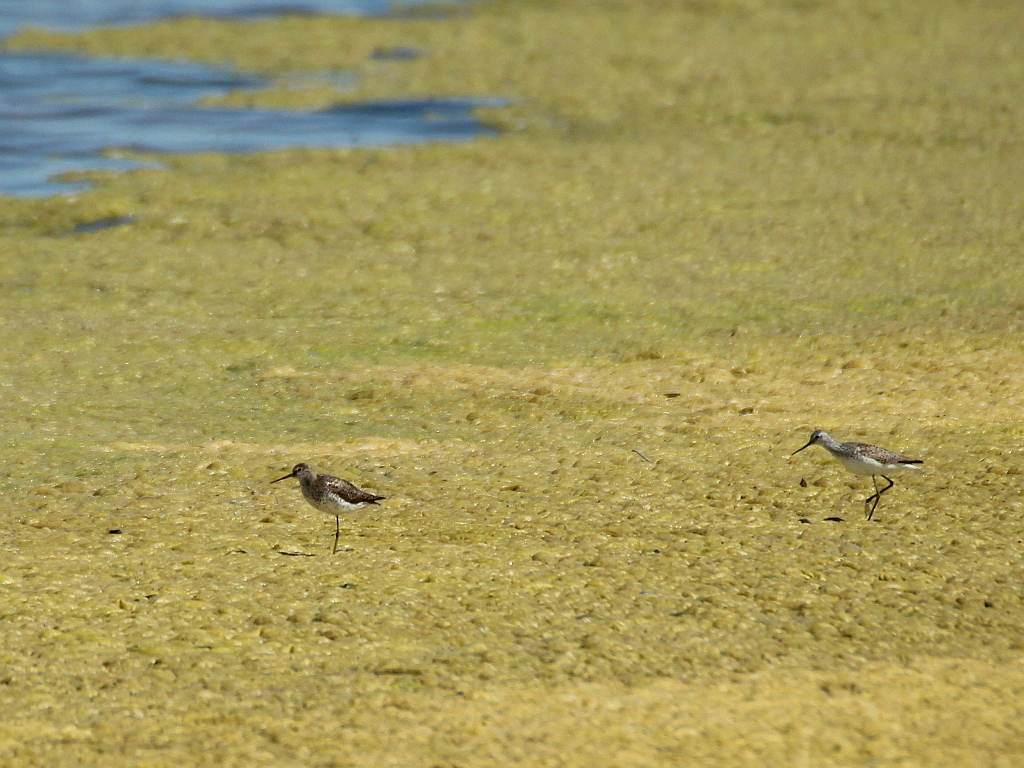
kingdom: Animalia
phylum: Chordata
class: Aves
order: Charadriiformes
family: Scolopacidae
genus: Tringa
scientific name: Tringa stagnatilis
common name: Marsh sandpiper
